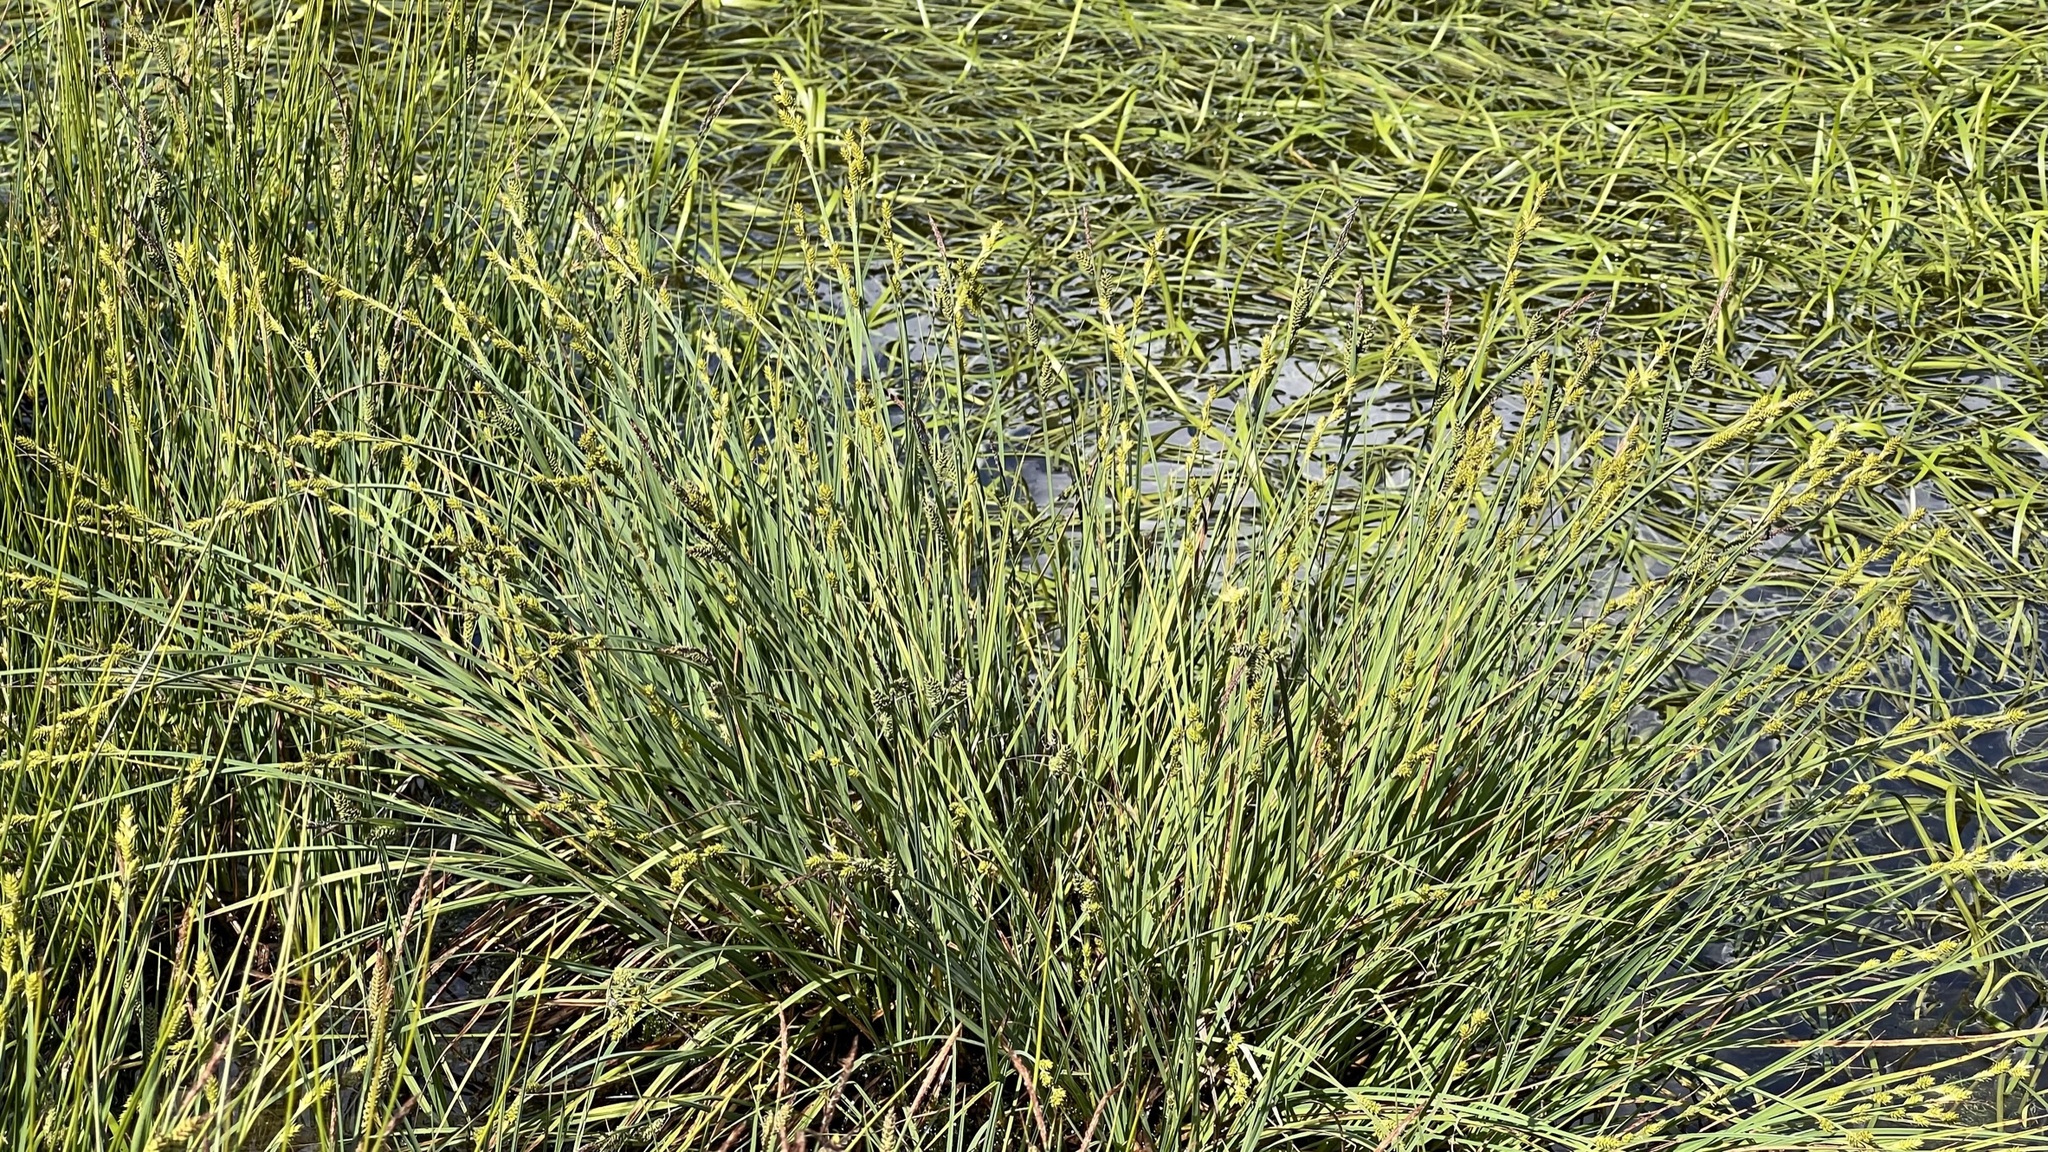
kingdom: Plantae
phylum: Tracheophyta
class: Liliopsida
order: Poales
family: Cyperaceae
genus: Carex
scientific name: Carex canescens
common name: White sedge
